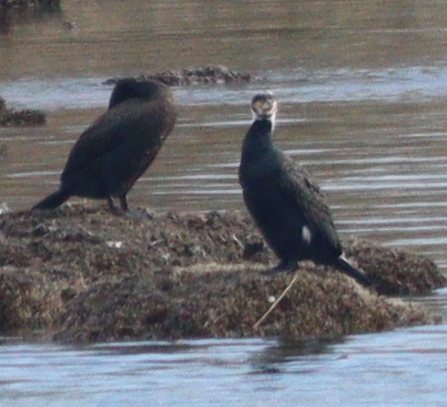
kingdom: Animalia
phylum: Chordata
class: Aves
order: Suliformes
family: Phalacrocoracidae
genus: Phalacrocorax
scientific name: Phalacrocorax carbo
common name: Great cormorant
